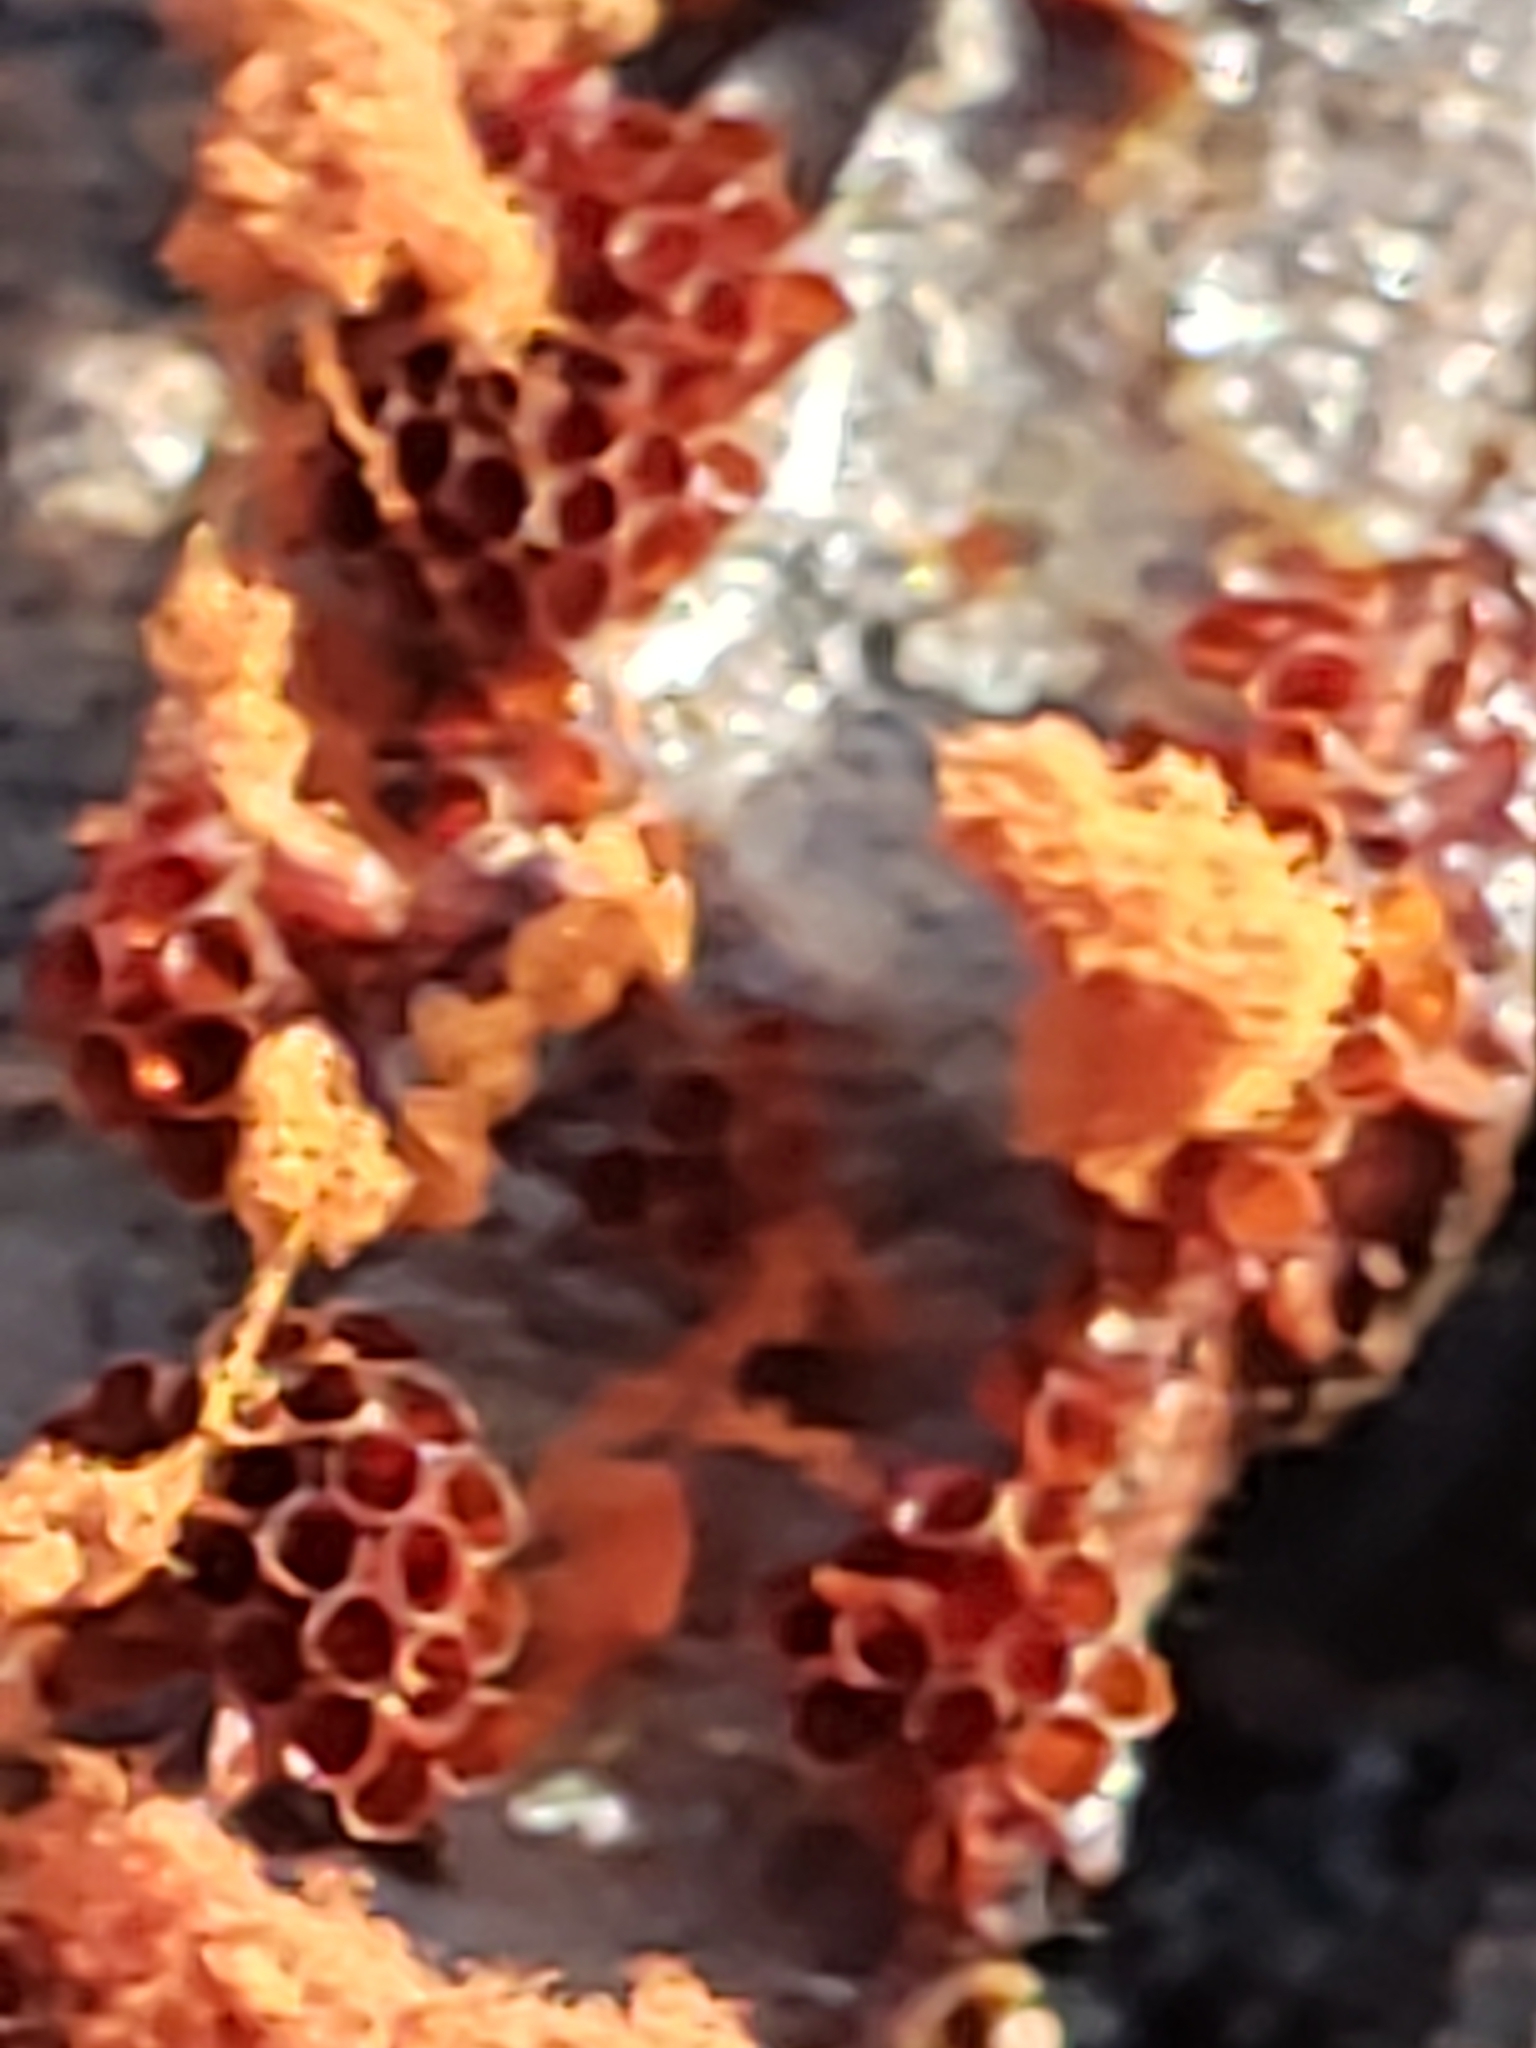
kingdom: Protozoa
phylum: Mycetozoa
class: Myxomycetes
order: Trichiales
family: Trichiaceae
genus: Metatrichia
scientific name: Metatrichia vesparia
